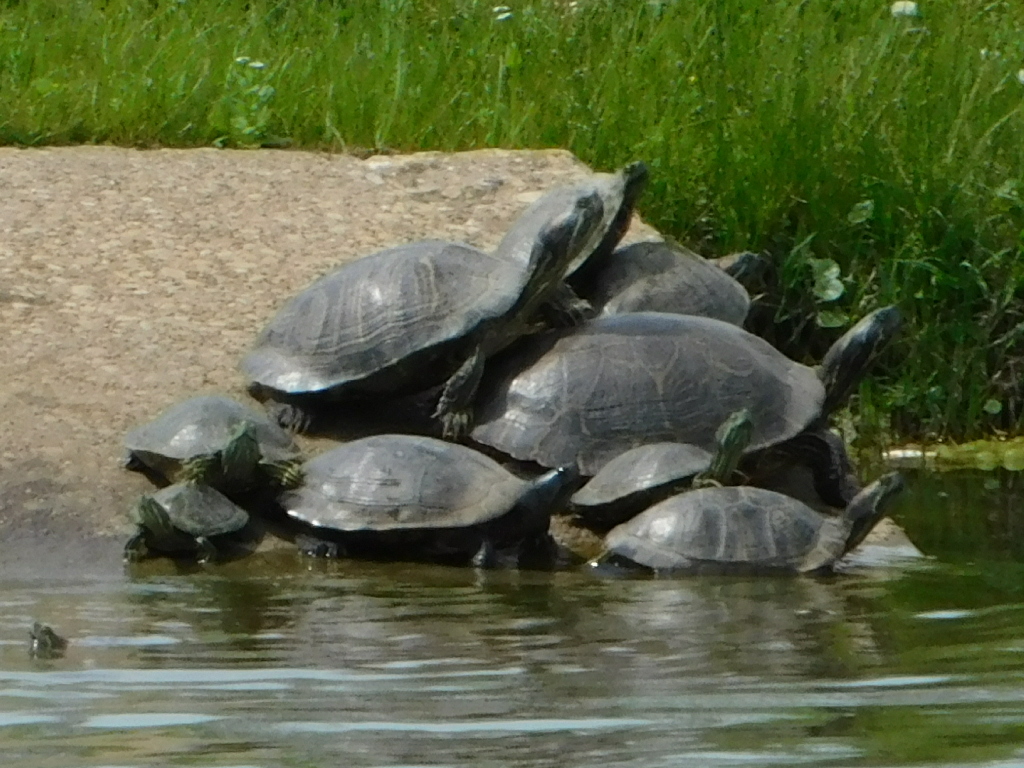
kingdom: Animalia
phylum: Chordata
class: Testudines
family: Emydidae
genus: Trachemys
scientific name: Trachemys scripta
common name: Slider
